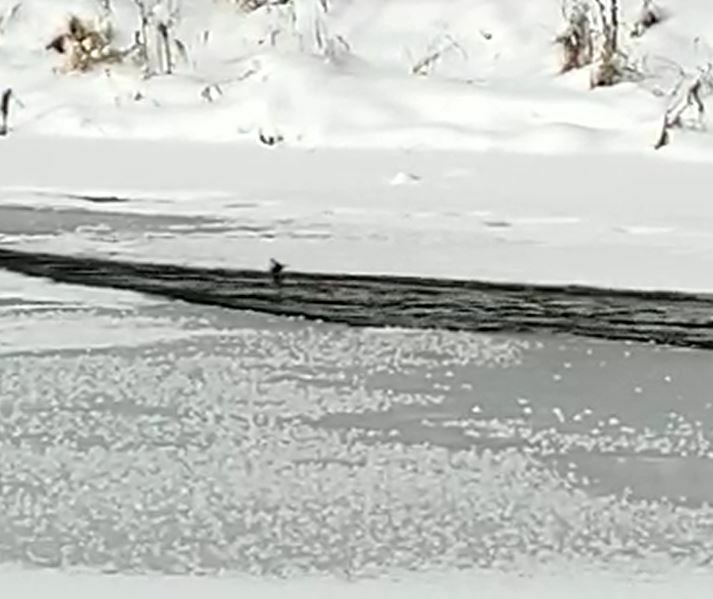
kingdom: Animalia
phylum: Chordata
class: Aves
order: Passeriformes
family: Cinclidae
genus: Cinclus
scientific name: Cinclus cinclus
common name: White-throated dipper
